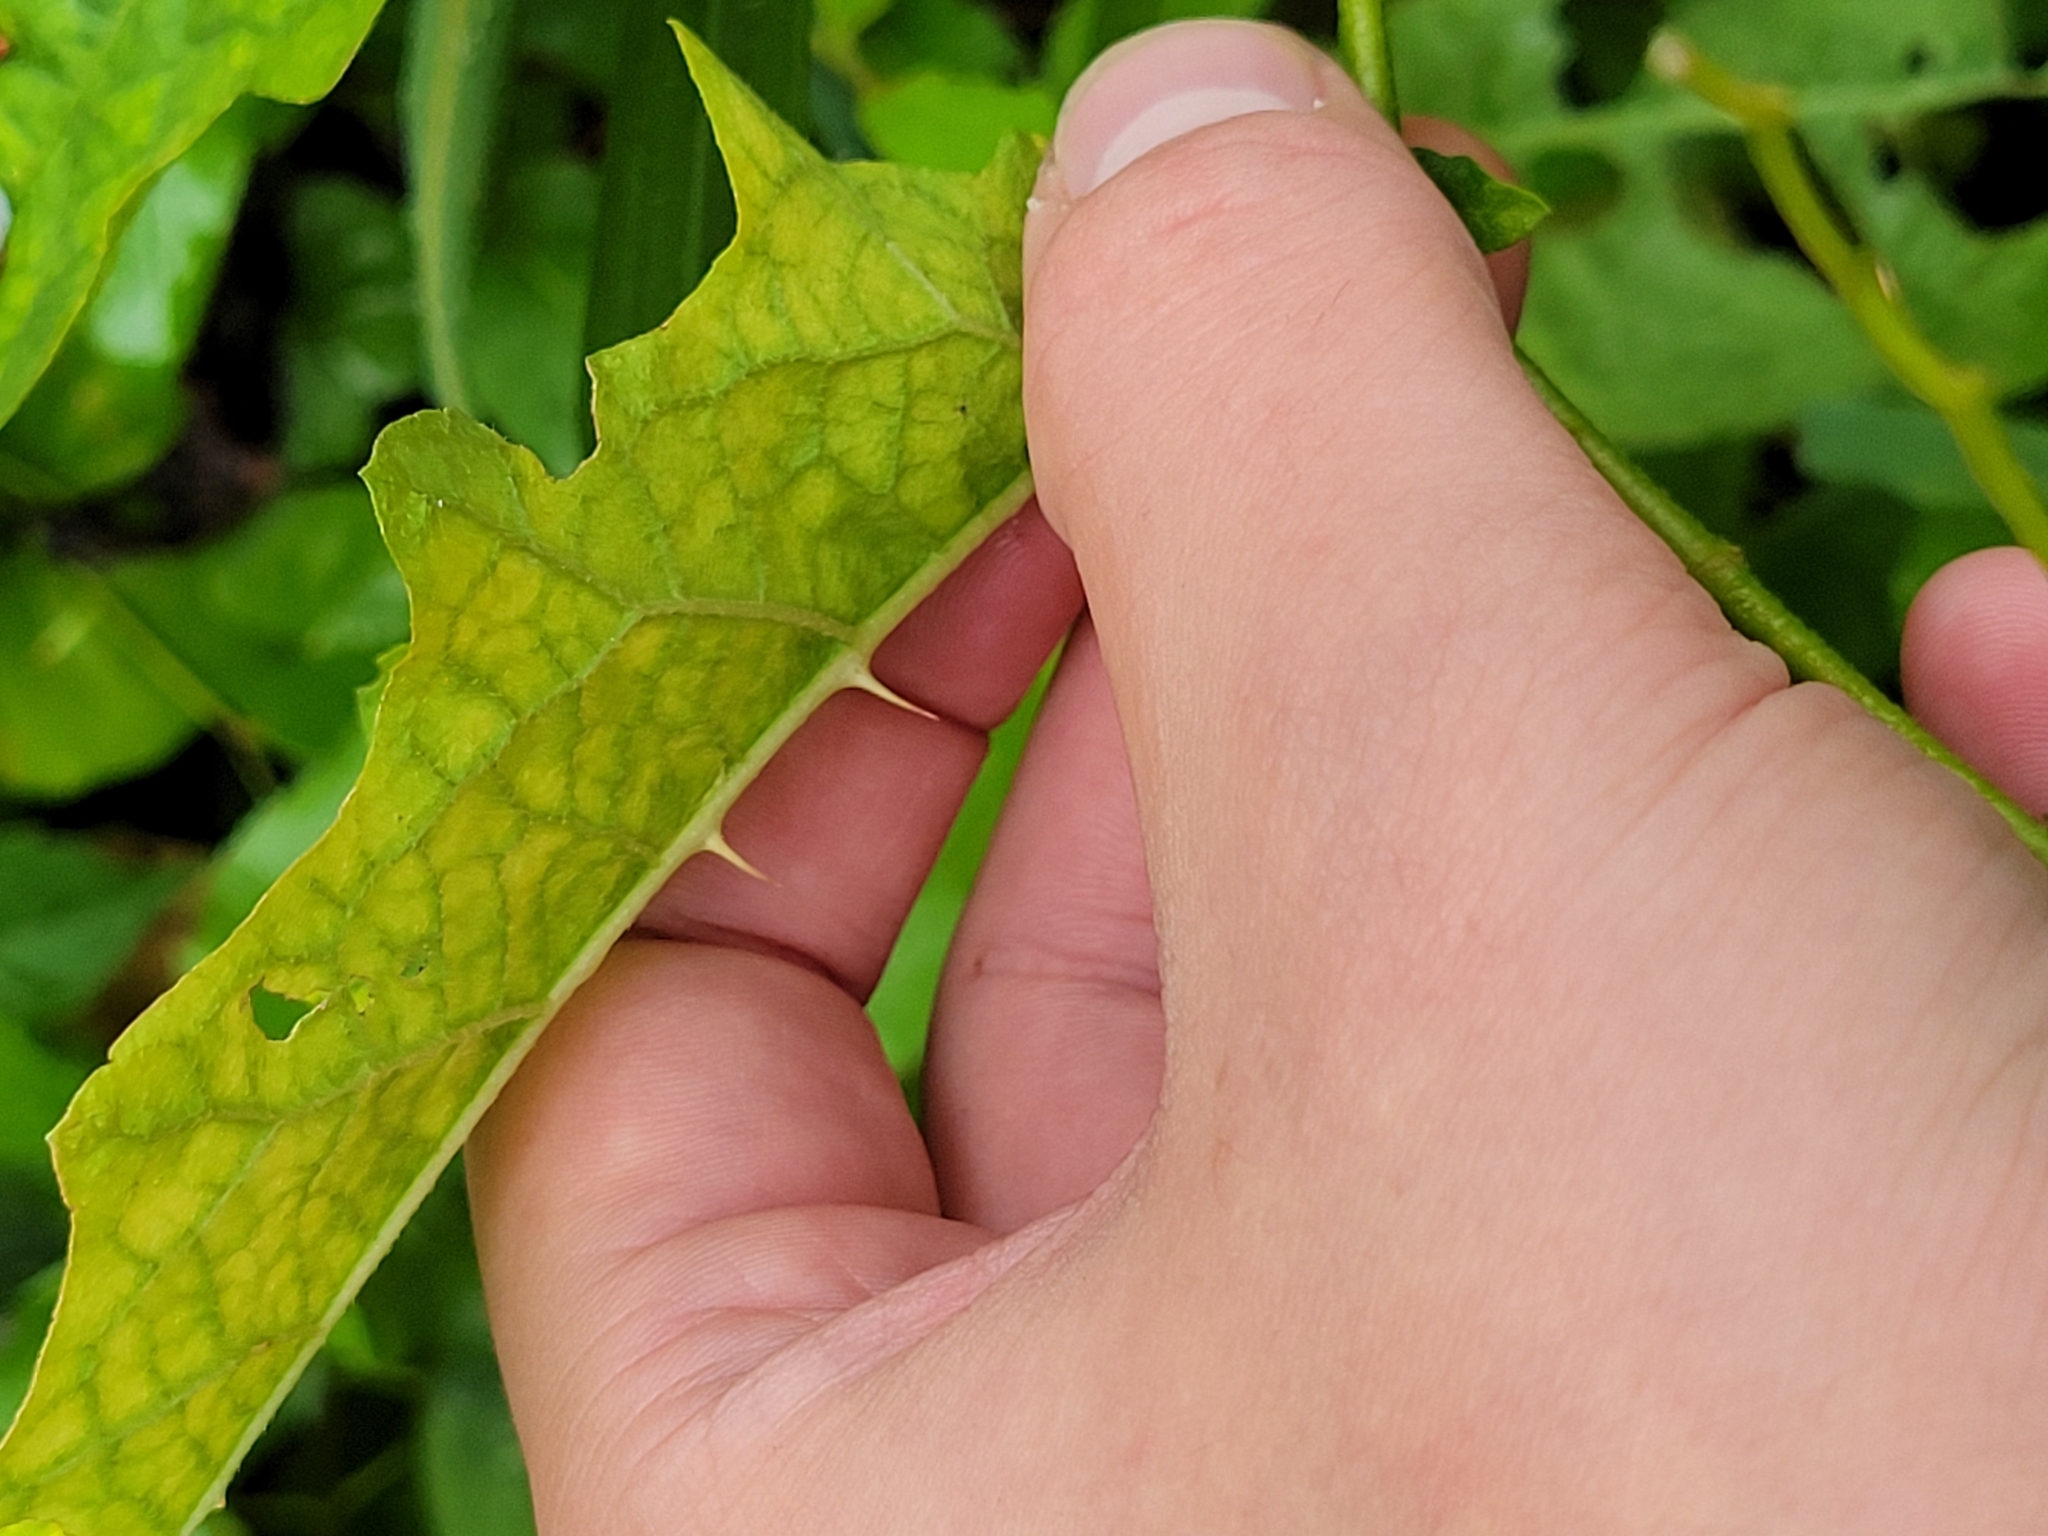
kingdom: Plantae
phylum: Tracheophyta
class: Magnoliopsida
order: Solanales
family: Solanaceae
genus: Solanum
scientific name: Solanum carolinense
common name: Horse-nettle
